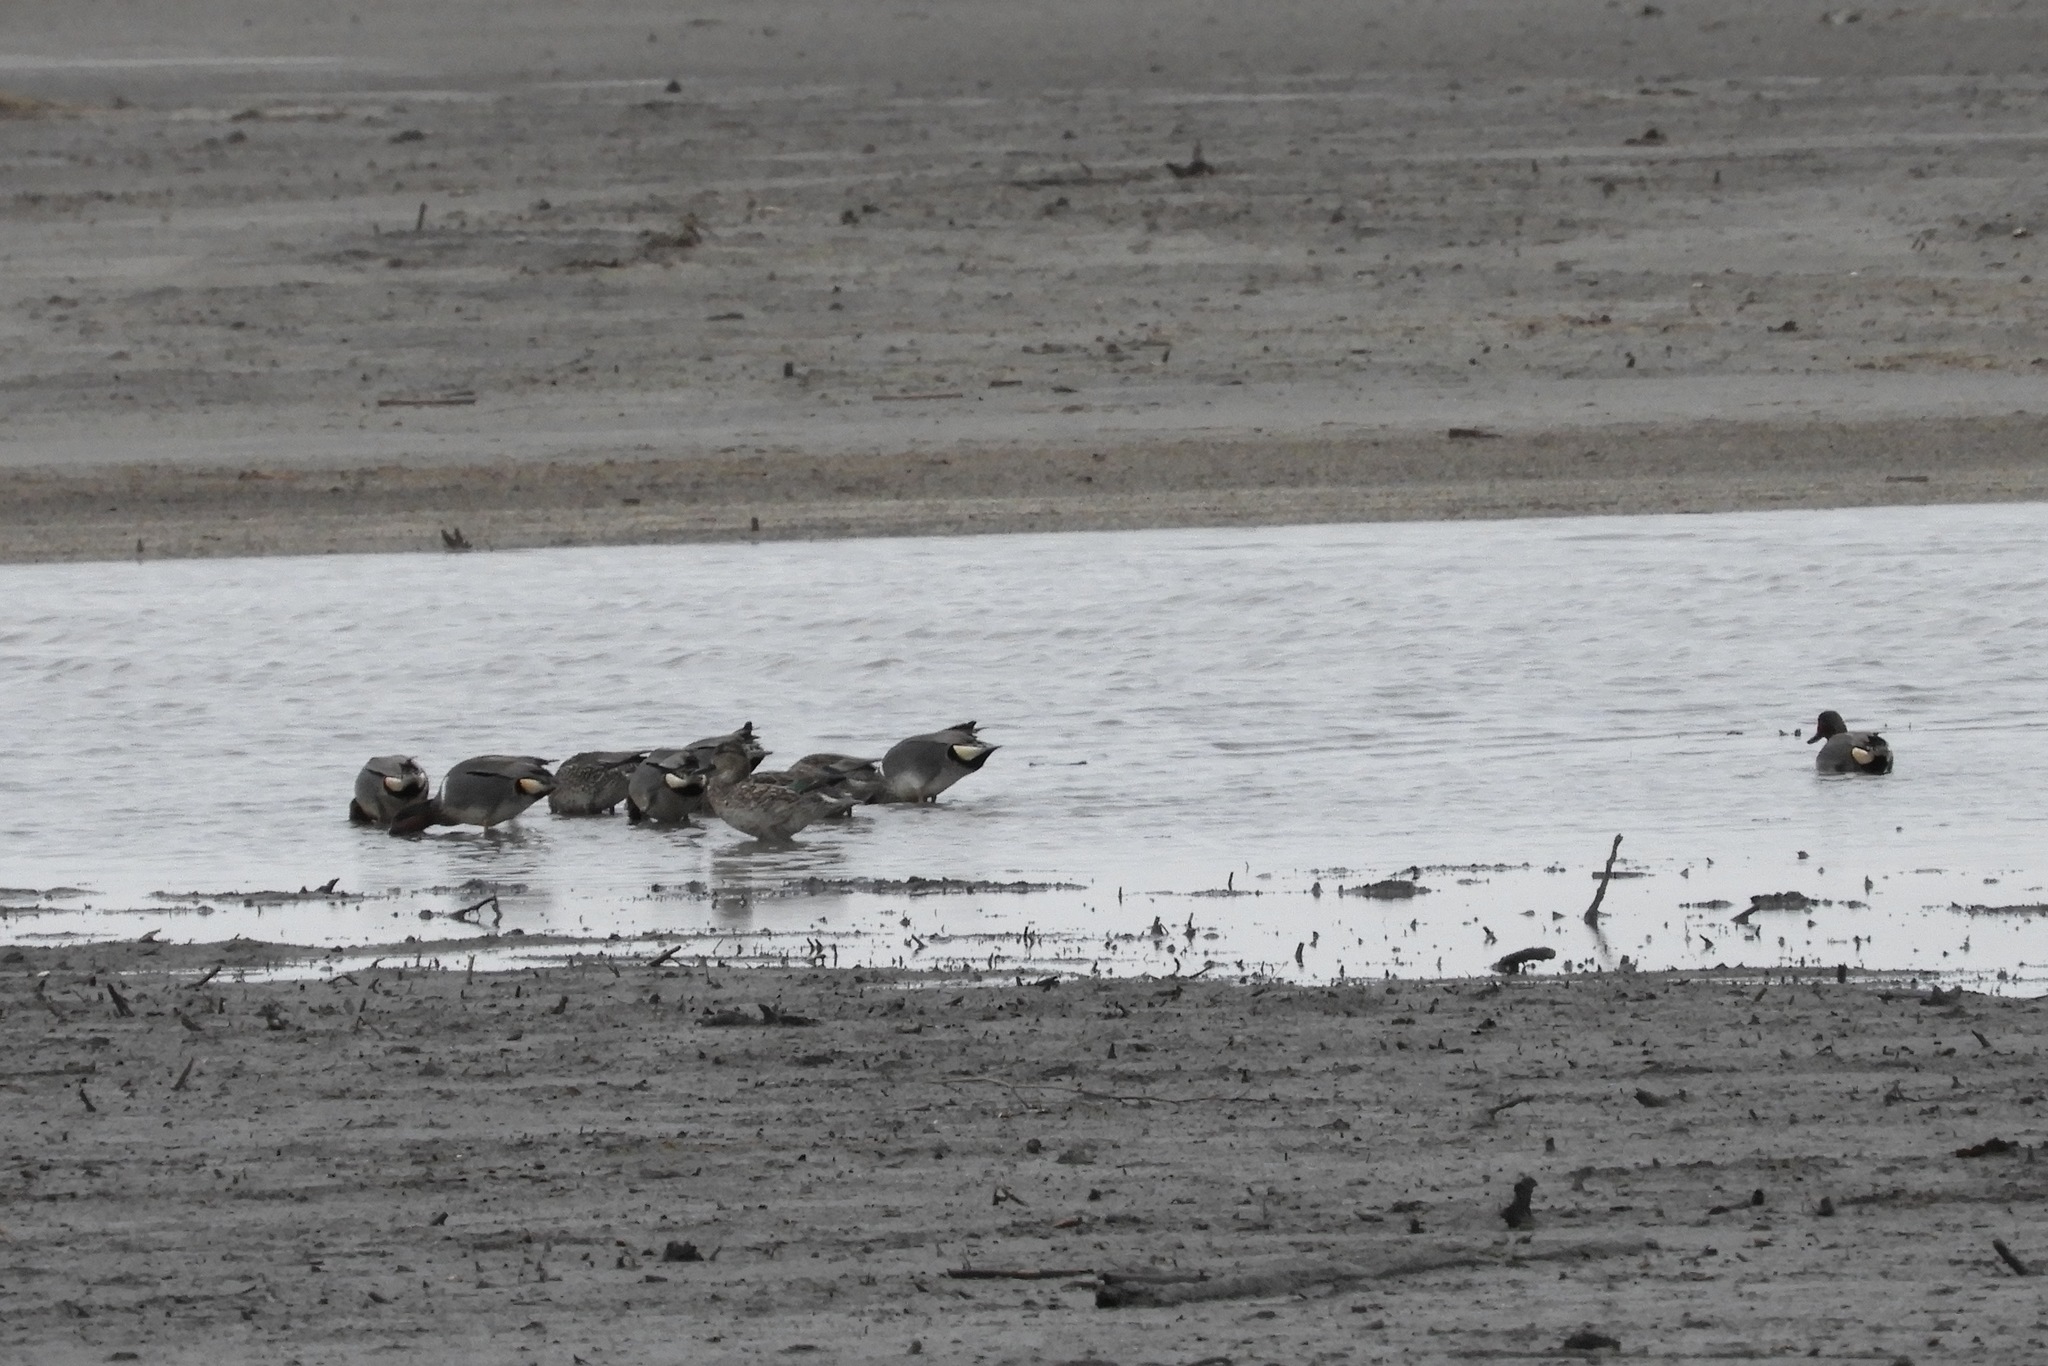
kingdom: Animalia
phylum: Chordata
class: Aves
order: Anseriformes
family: Anatidae
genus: Anas
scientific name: Anas carolinensis
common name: Green-winged teal
